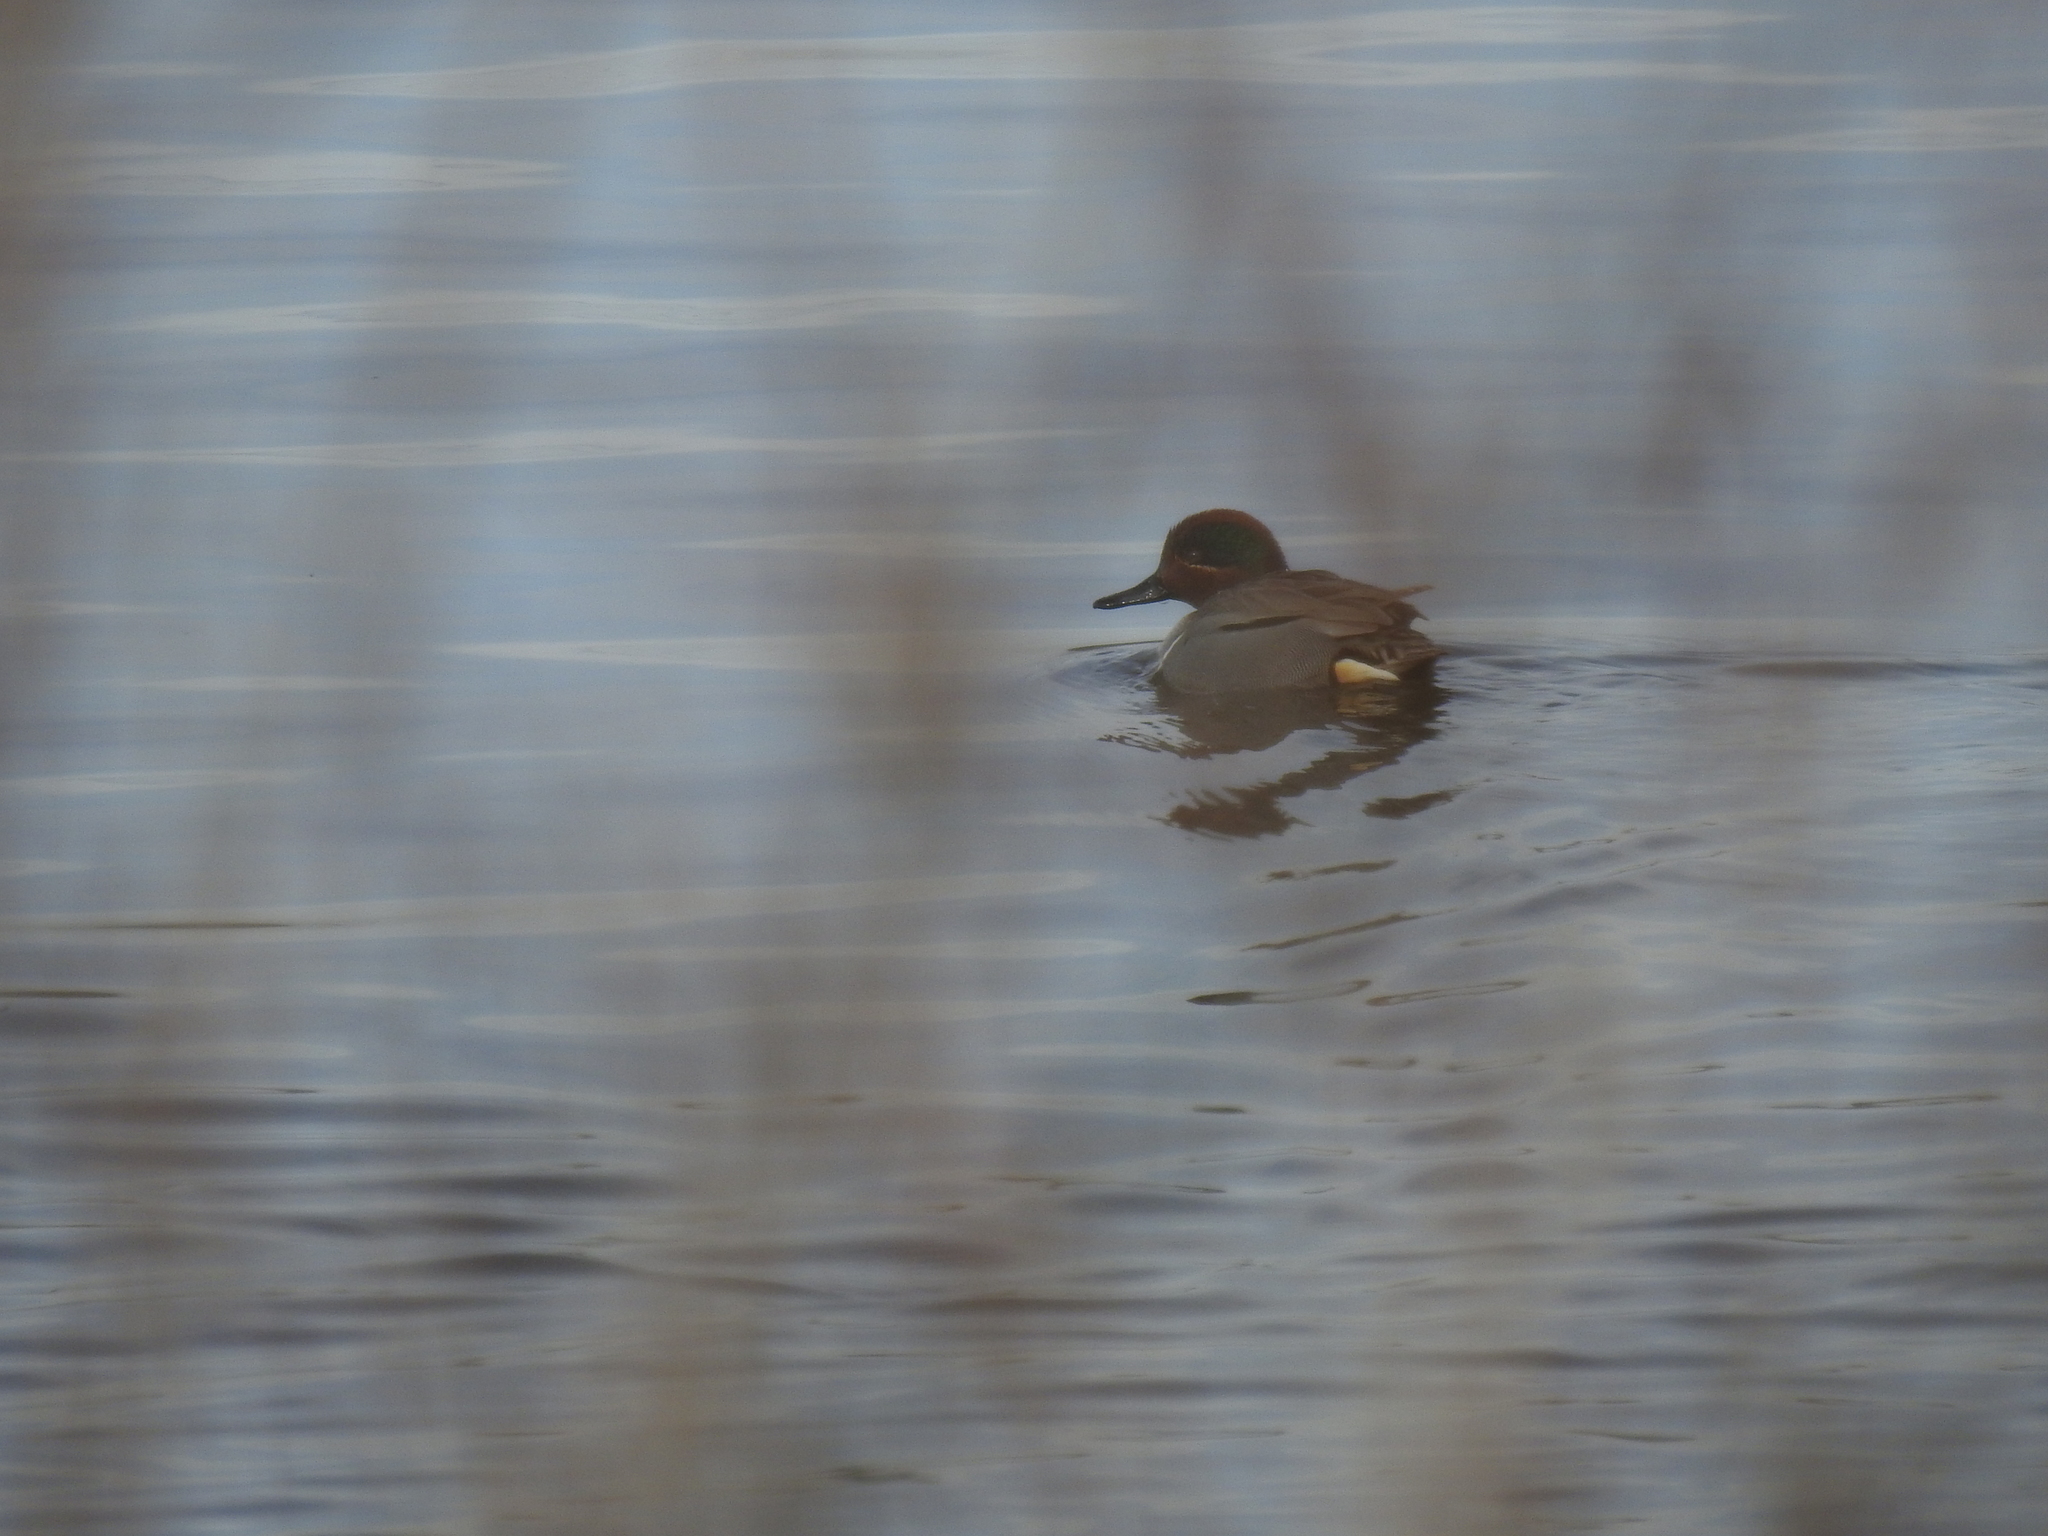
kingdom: Animalia
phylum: Chordata
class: Aves
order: Anseriformes
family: Anatidae
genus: Anas
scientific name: Anas crecca
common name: Eurasian teal
